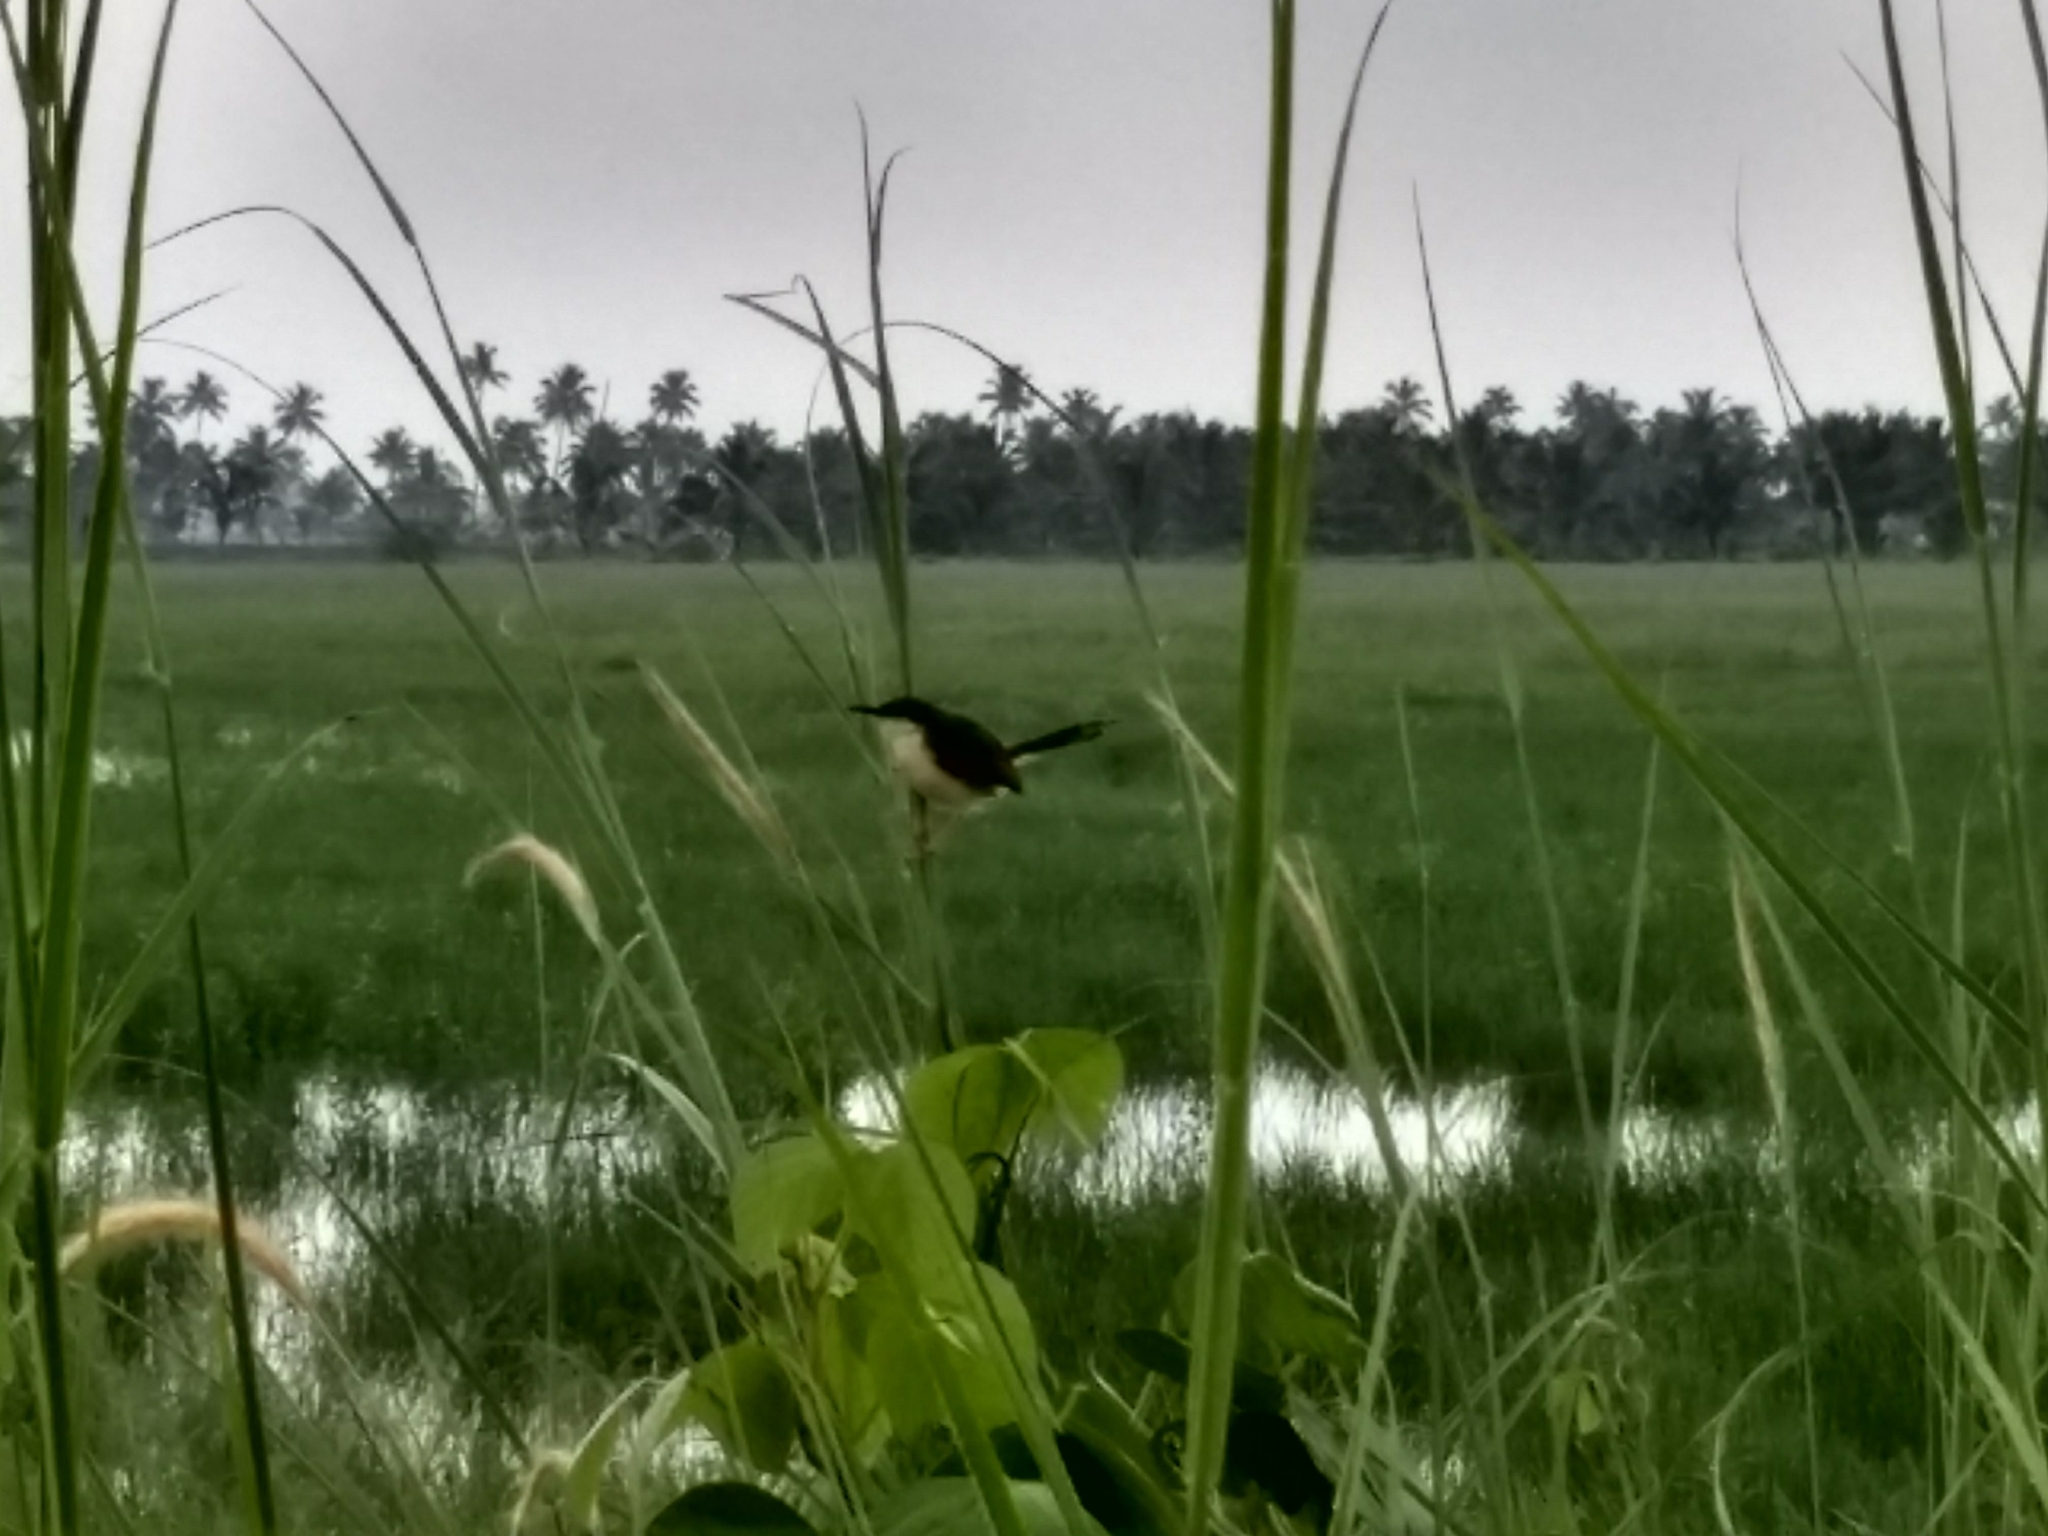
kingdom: Animalia
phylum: Chordata
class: Aves
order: Passeriformes
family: Cisticolidae
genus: Prinia
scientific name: Prinia socialis
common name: Ashy prinia
